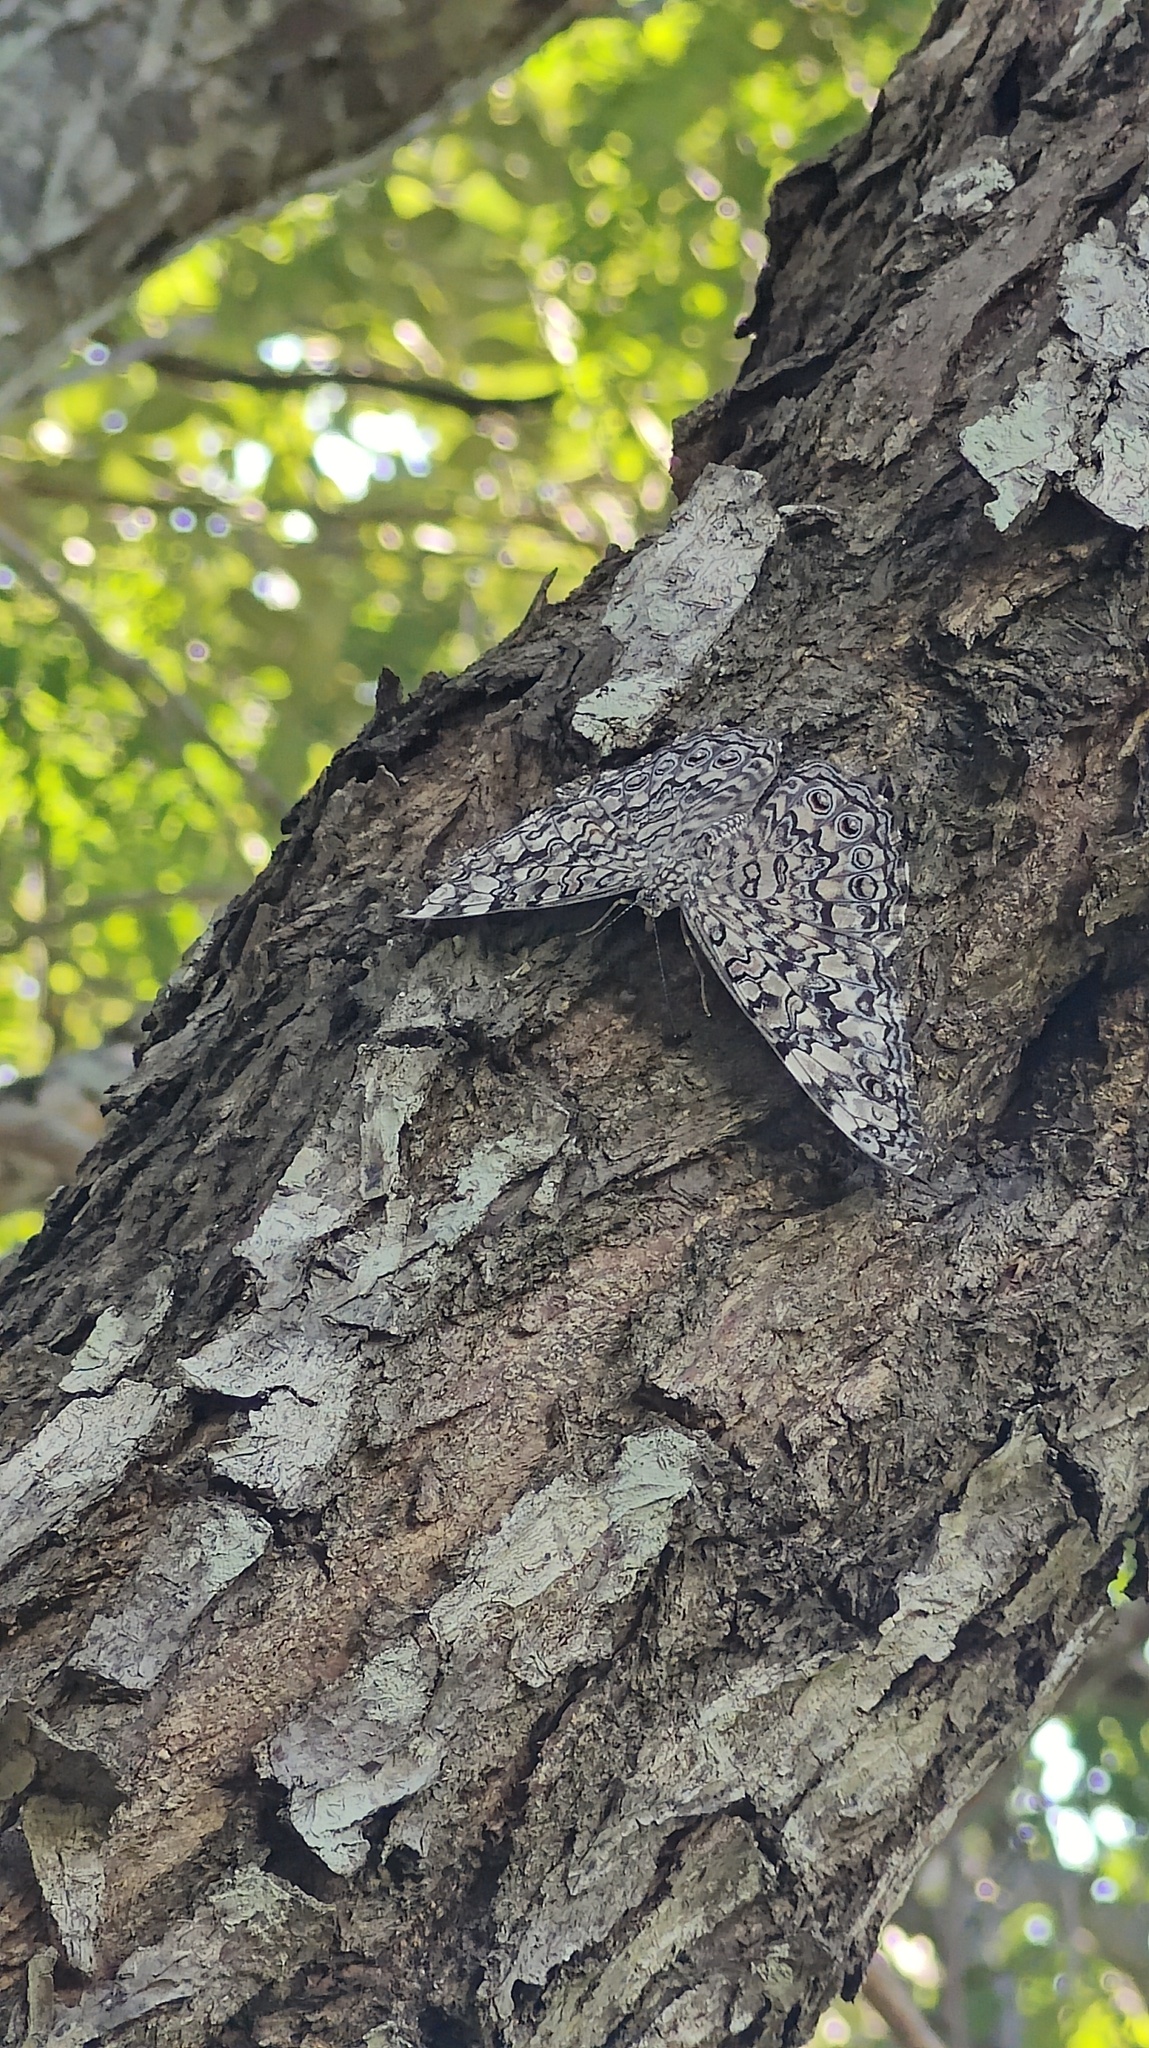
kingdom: Animalia
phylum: Arthropoda
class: Insecta
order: Lepidoptera
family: Nymphalidae
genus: Hamadryas
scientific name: Hamadryas februa
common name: Gray cracker
